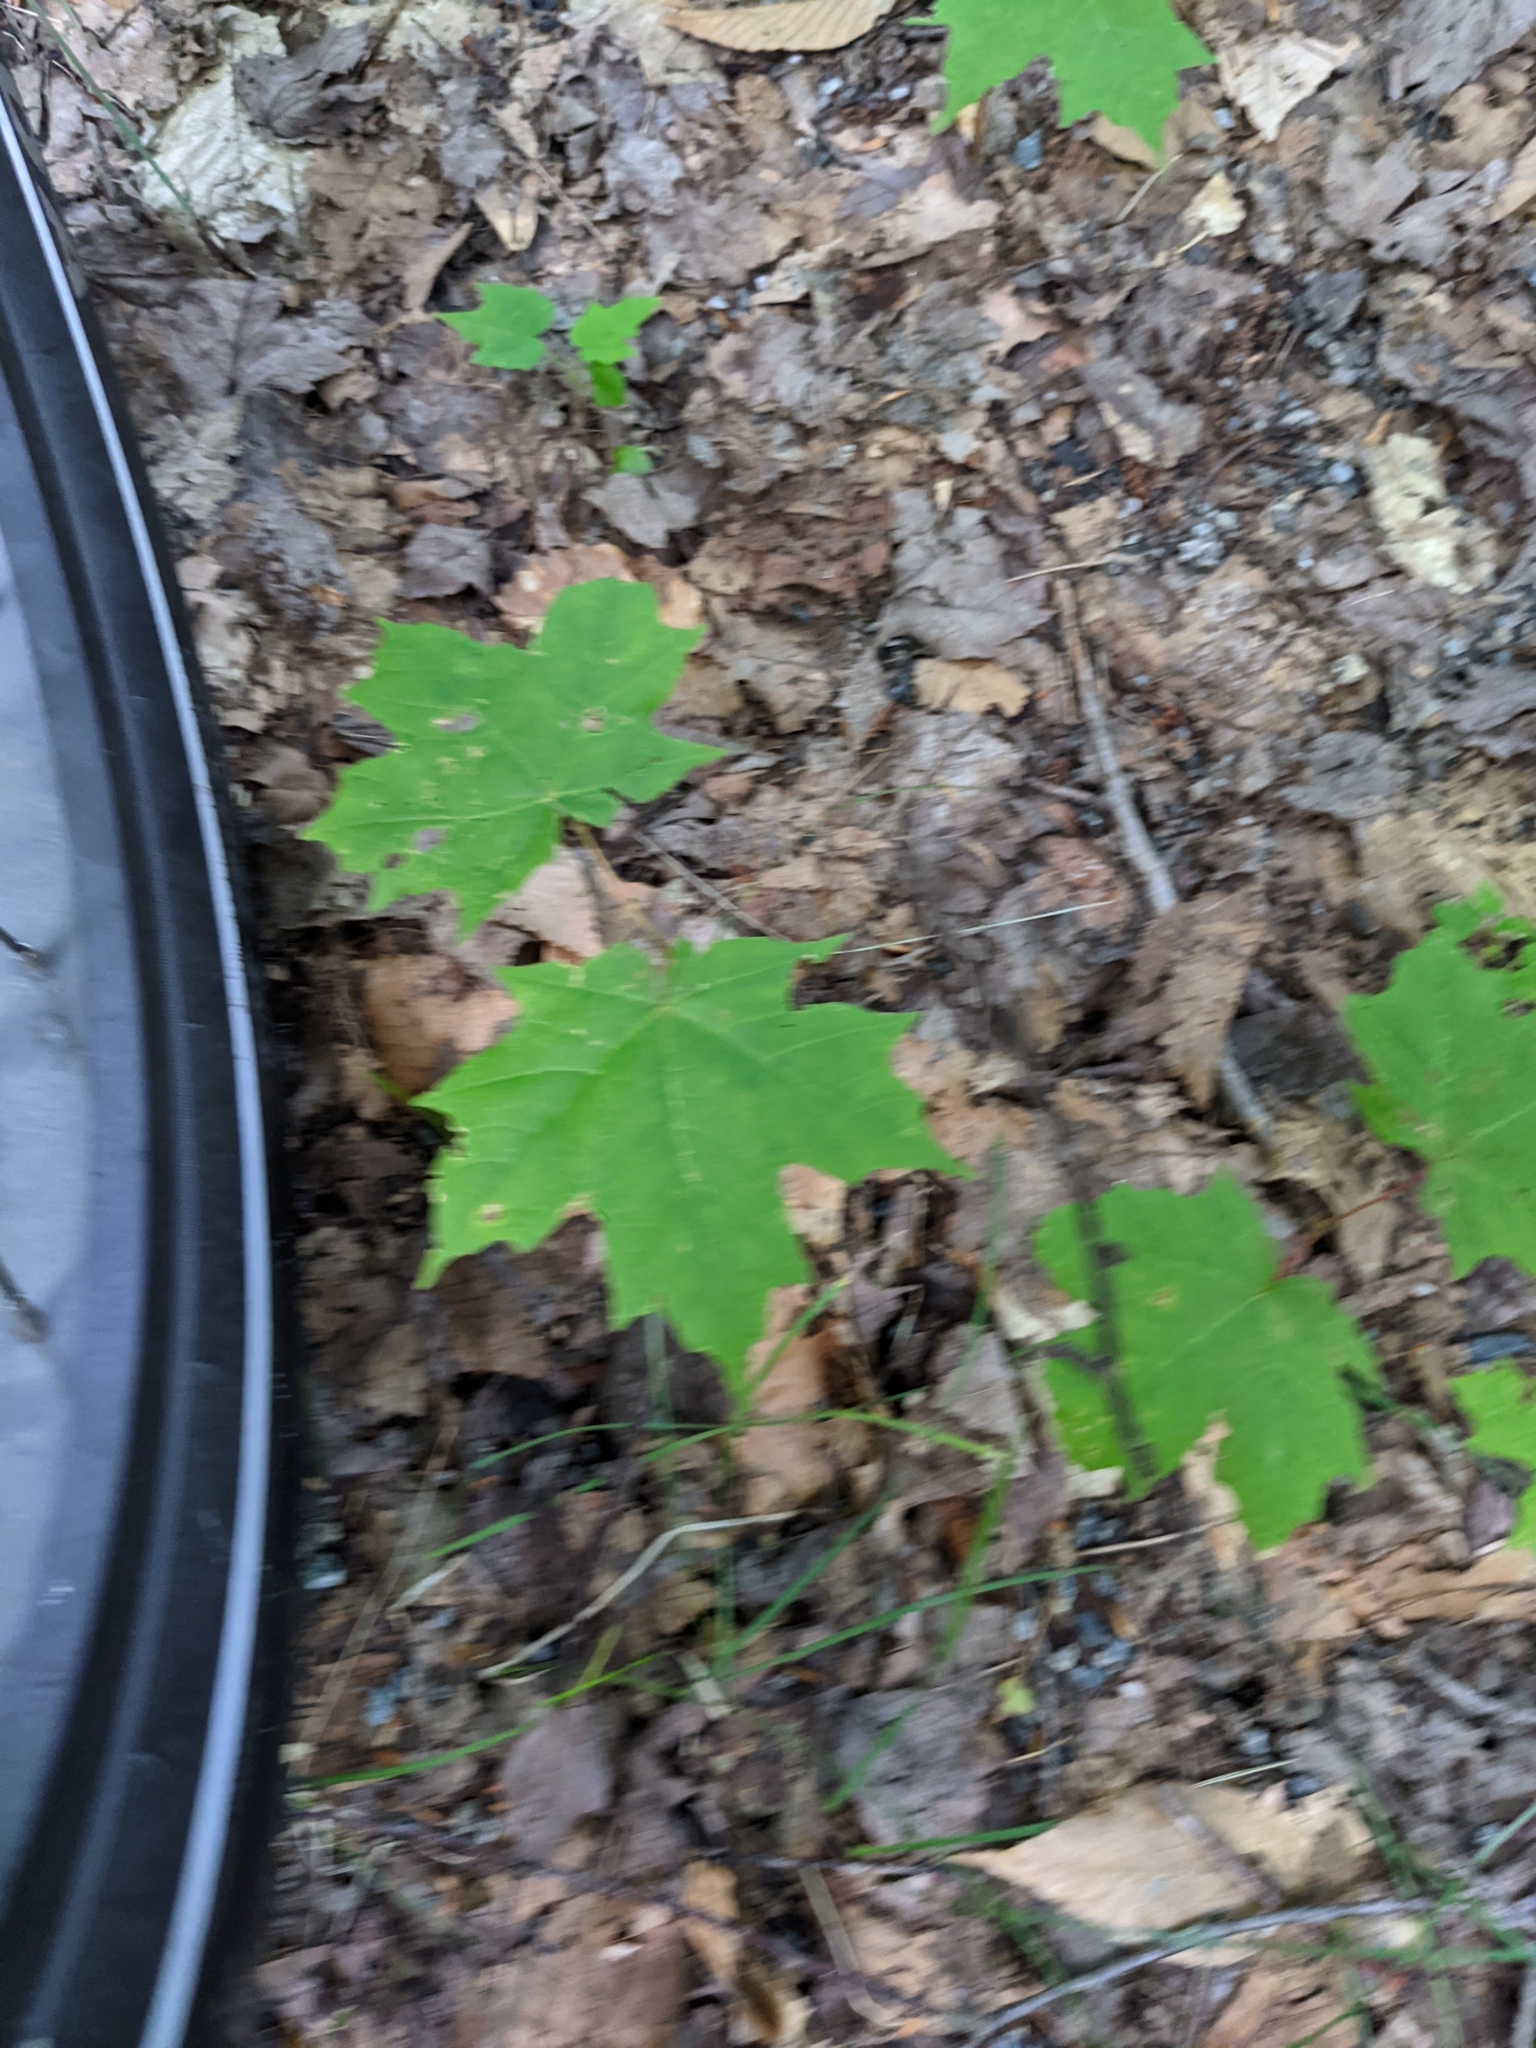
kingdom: Plantae
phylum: Tracheophyta
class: Magnoliopsida
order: Sapindales
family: Sapindaceae
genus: Acer
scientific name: Acer saccharum
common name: Sugar maple
